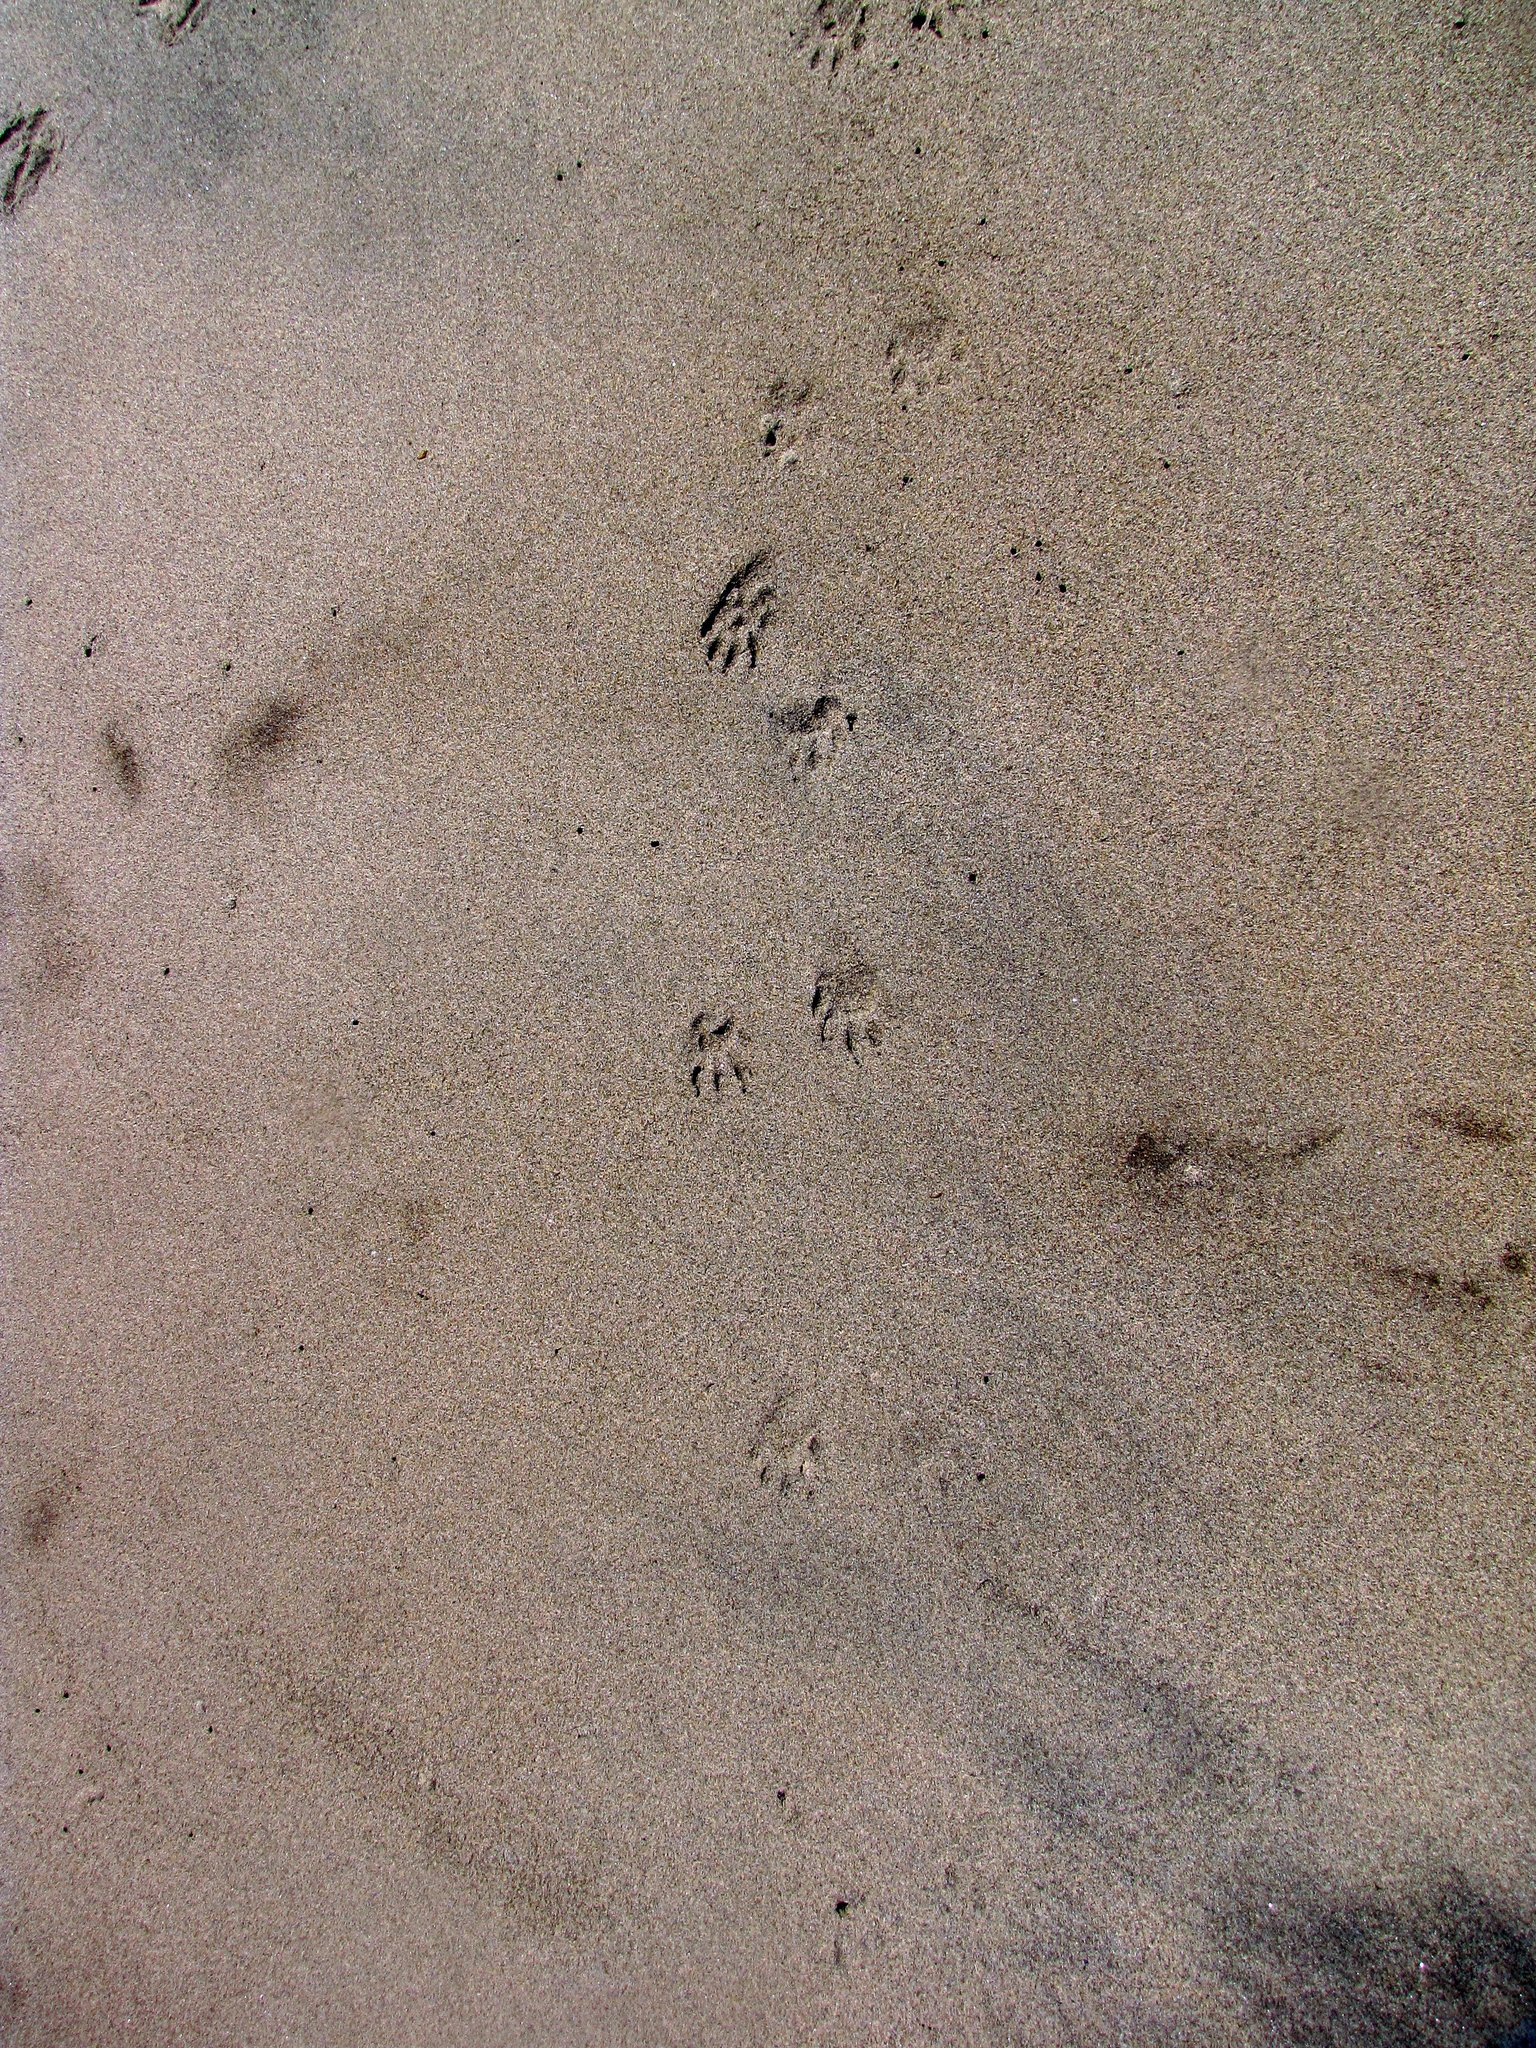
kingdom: Animalia
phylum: Chordata
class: Mammalia
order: Carnivora
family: Procyonidae
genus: Procyon
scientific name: Procyon lotor
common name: Raccoon
